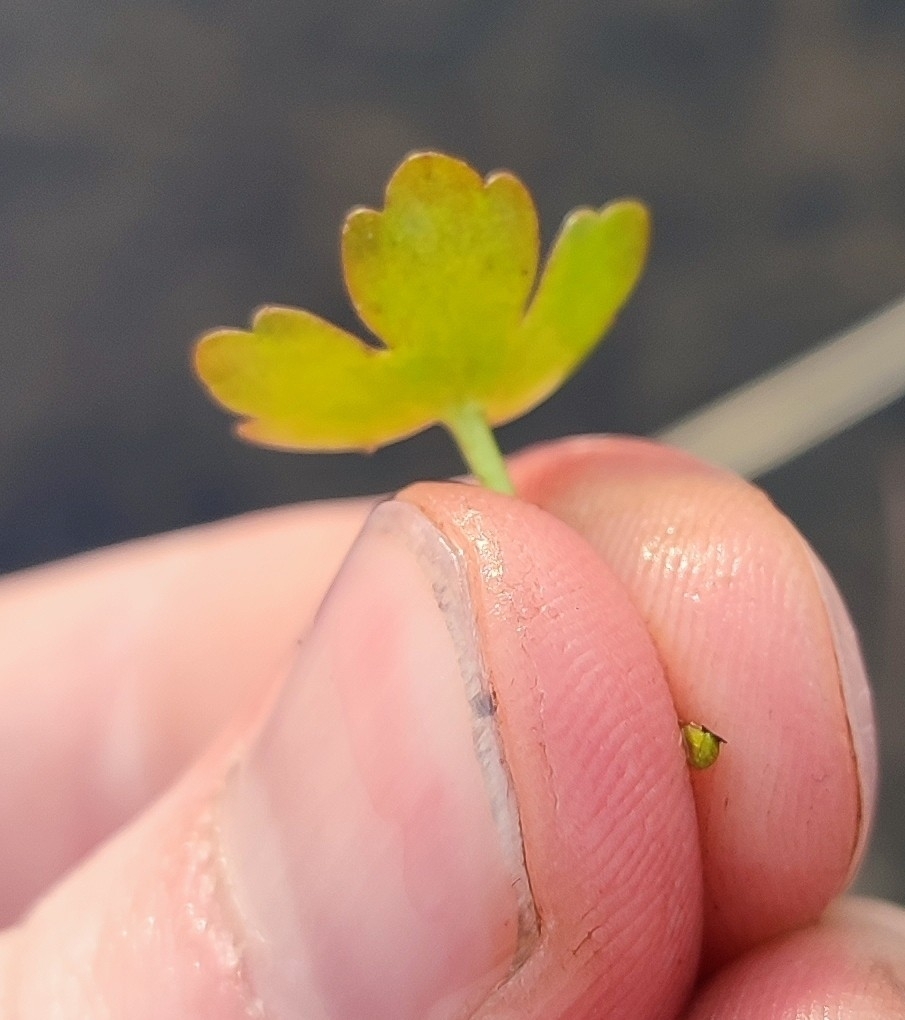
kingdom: Plantae
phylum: Tracheophyta
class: Magnoliopsida
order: Ranunculales
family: Ranunculaceae
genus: Ranunculus
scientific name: Ranunculus sceleratus
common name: Celery-leaved buttercup
